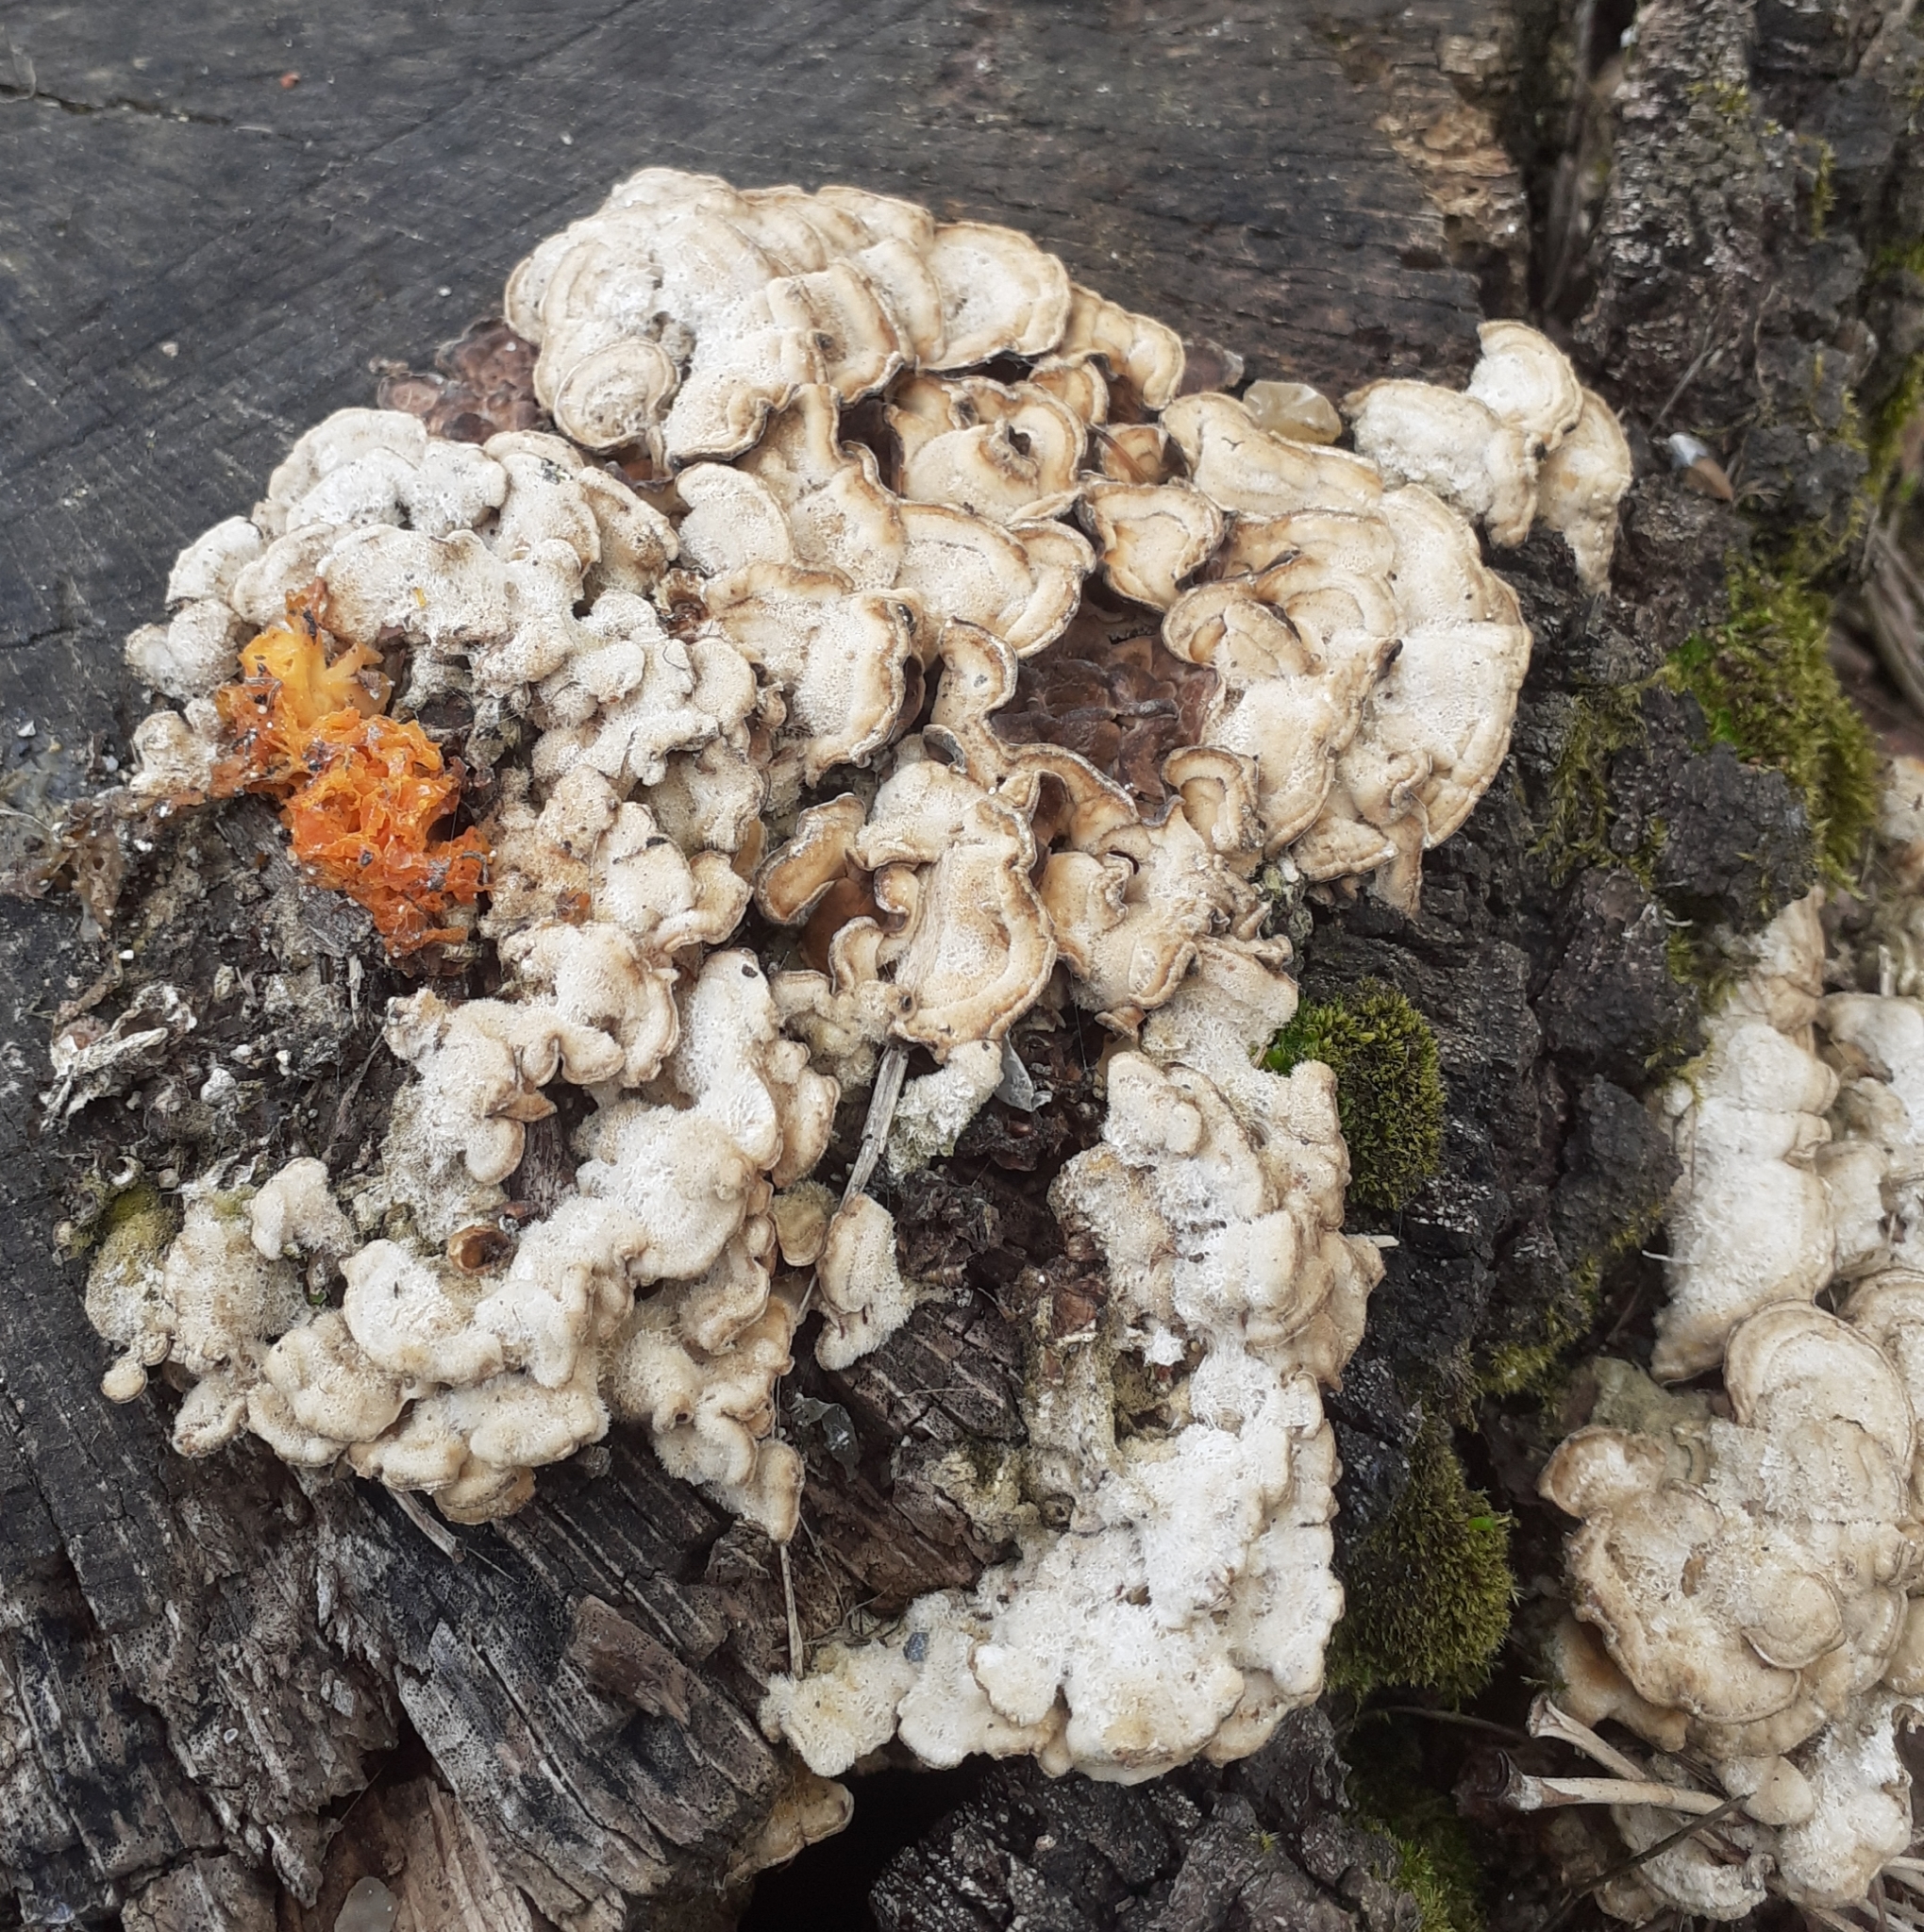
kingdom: Fungi
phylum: Basidiomycota
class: Agaricomycetes
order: Russulales
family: Stereaceae
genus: Stereum
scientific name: Stereum hirsutum
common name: Hairy curtain crust
